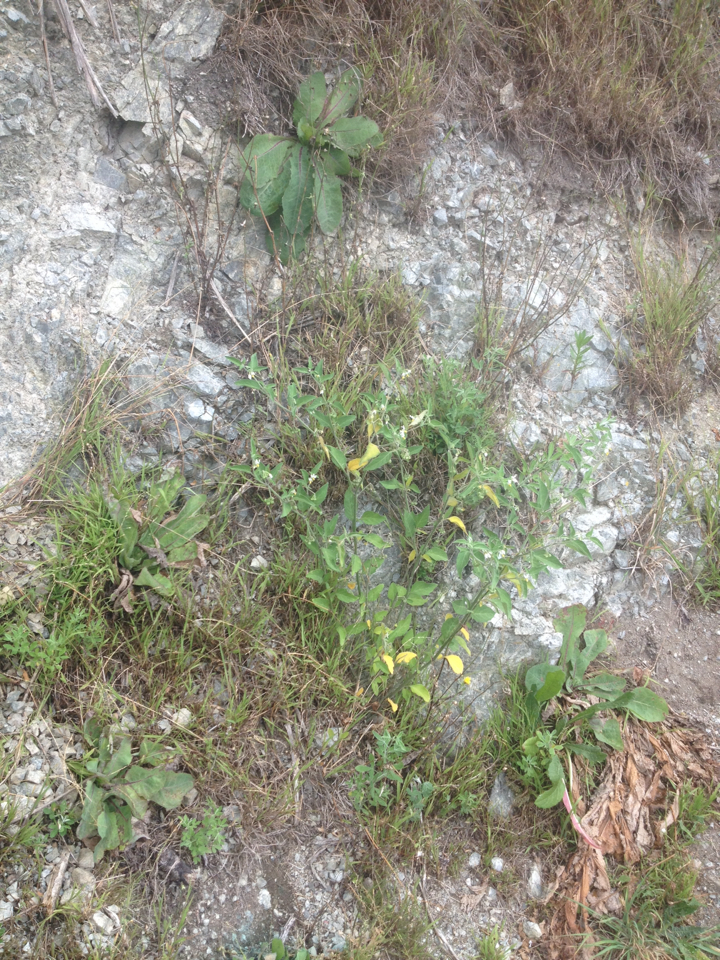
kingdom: Plantae
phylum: Tracheophyta
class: Magnoliopsida
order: Asterales
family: Asteraceae
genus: Lactuca
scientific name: Lactuca virosa
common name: Great lettuce
